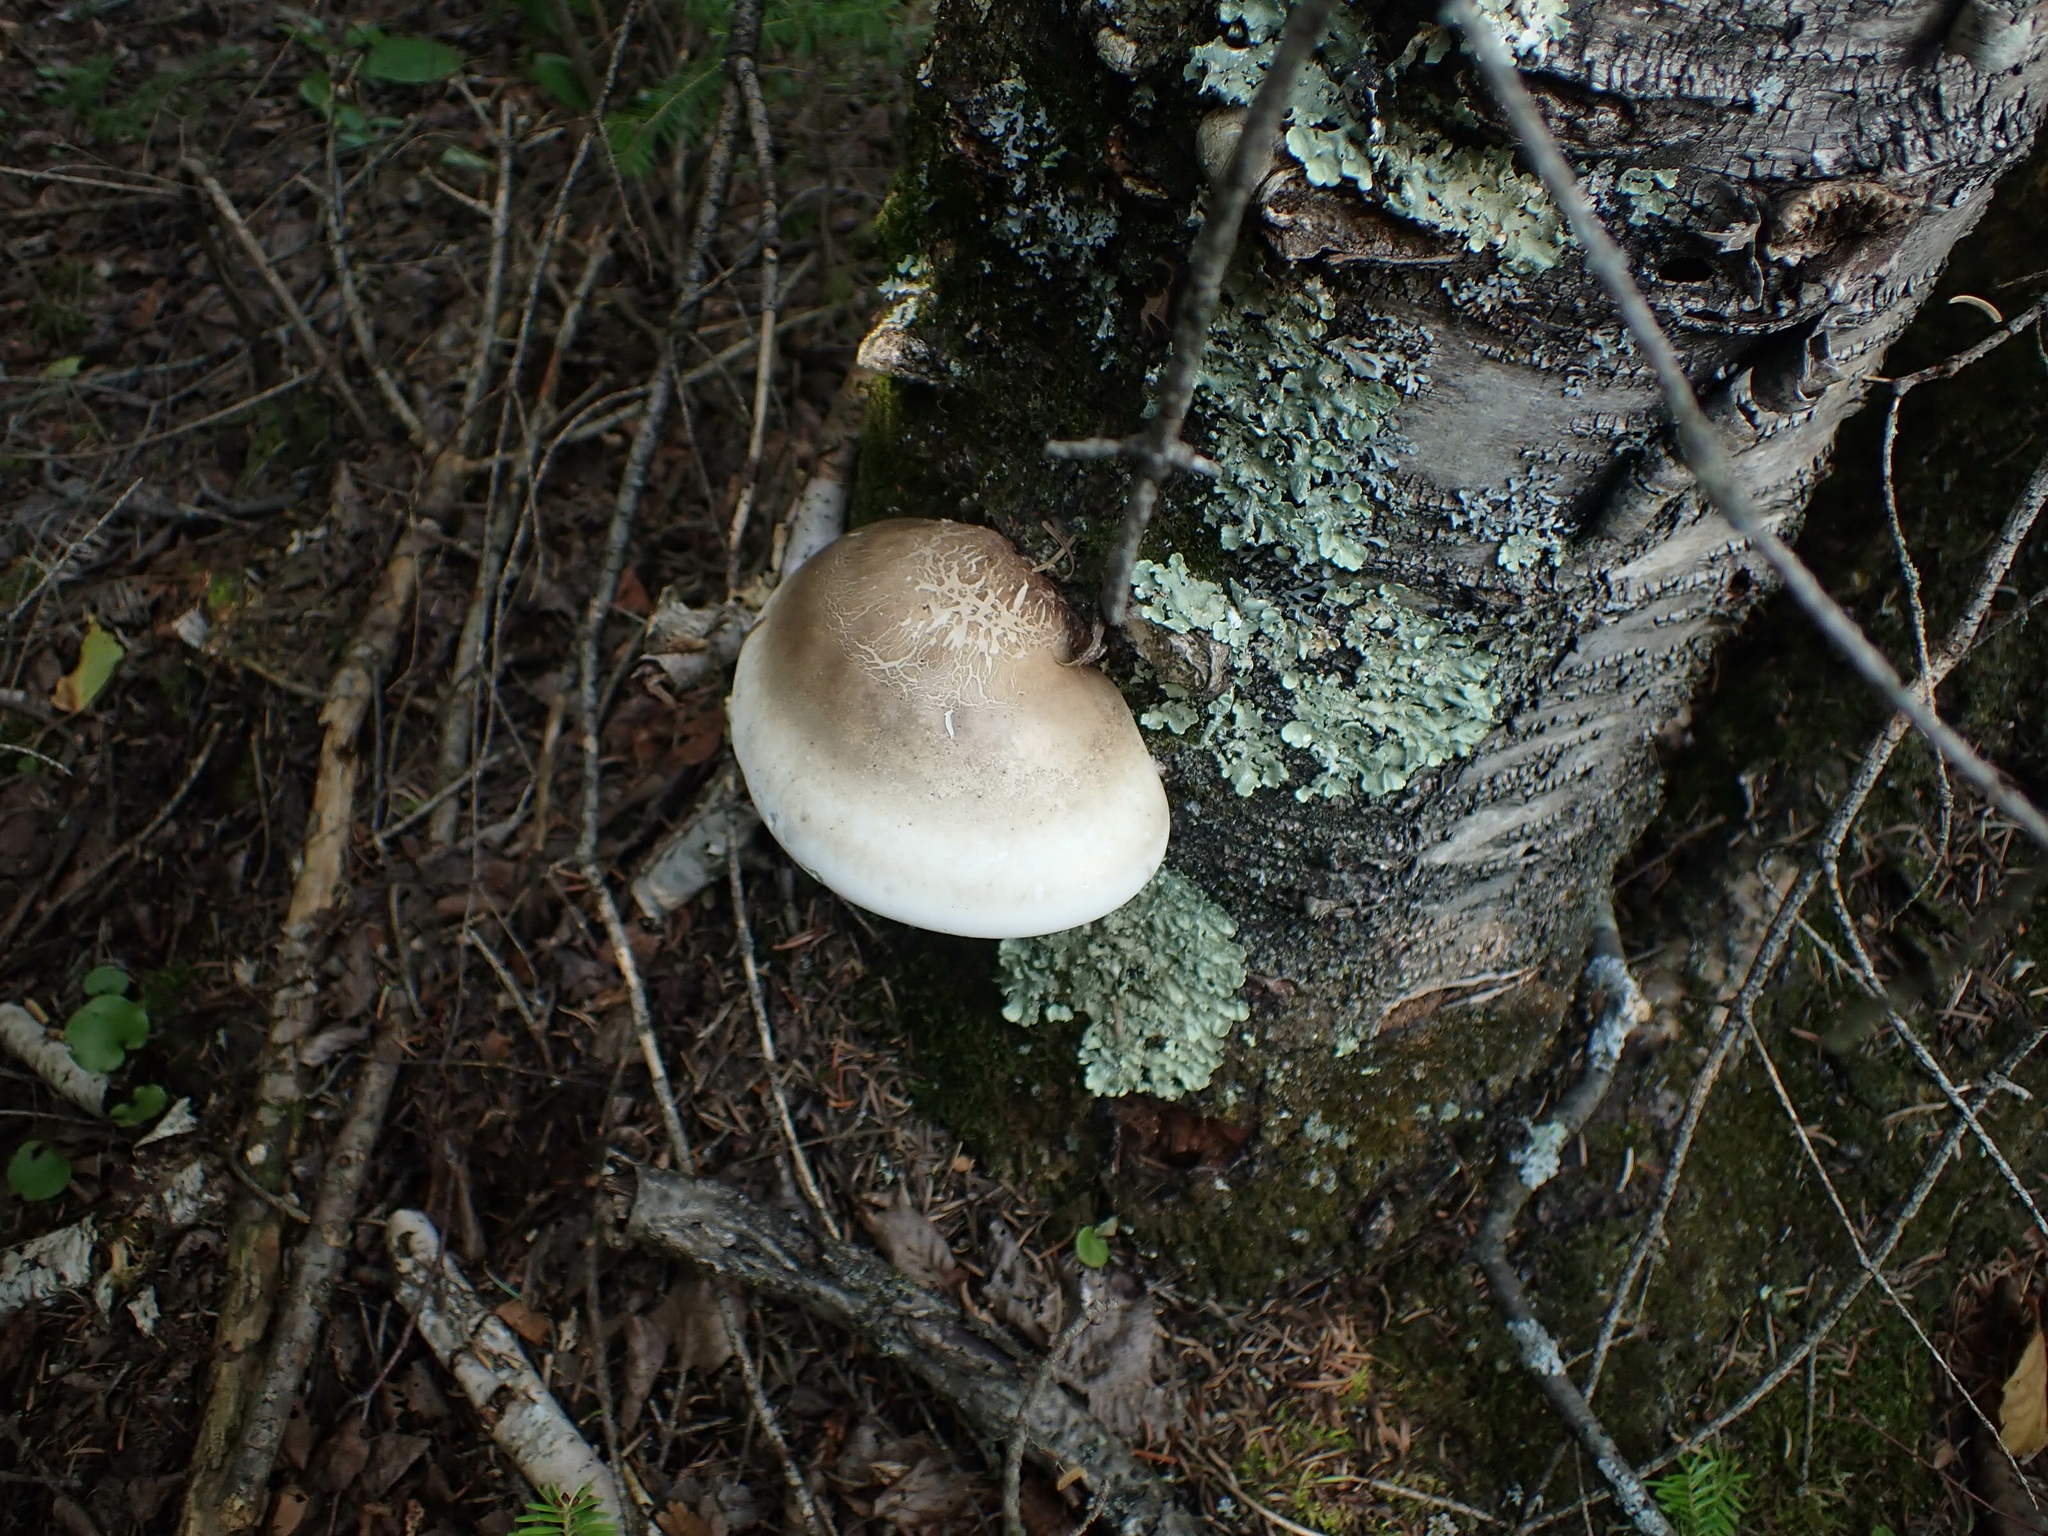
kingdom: Fungi
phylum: Basidiomycota
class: Agaricomycetes
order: Polyporales
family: Fomitopsidaceae
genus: Fomitopsis
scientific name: Fomitopsis betulina
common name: Birch polypore
